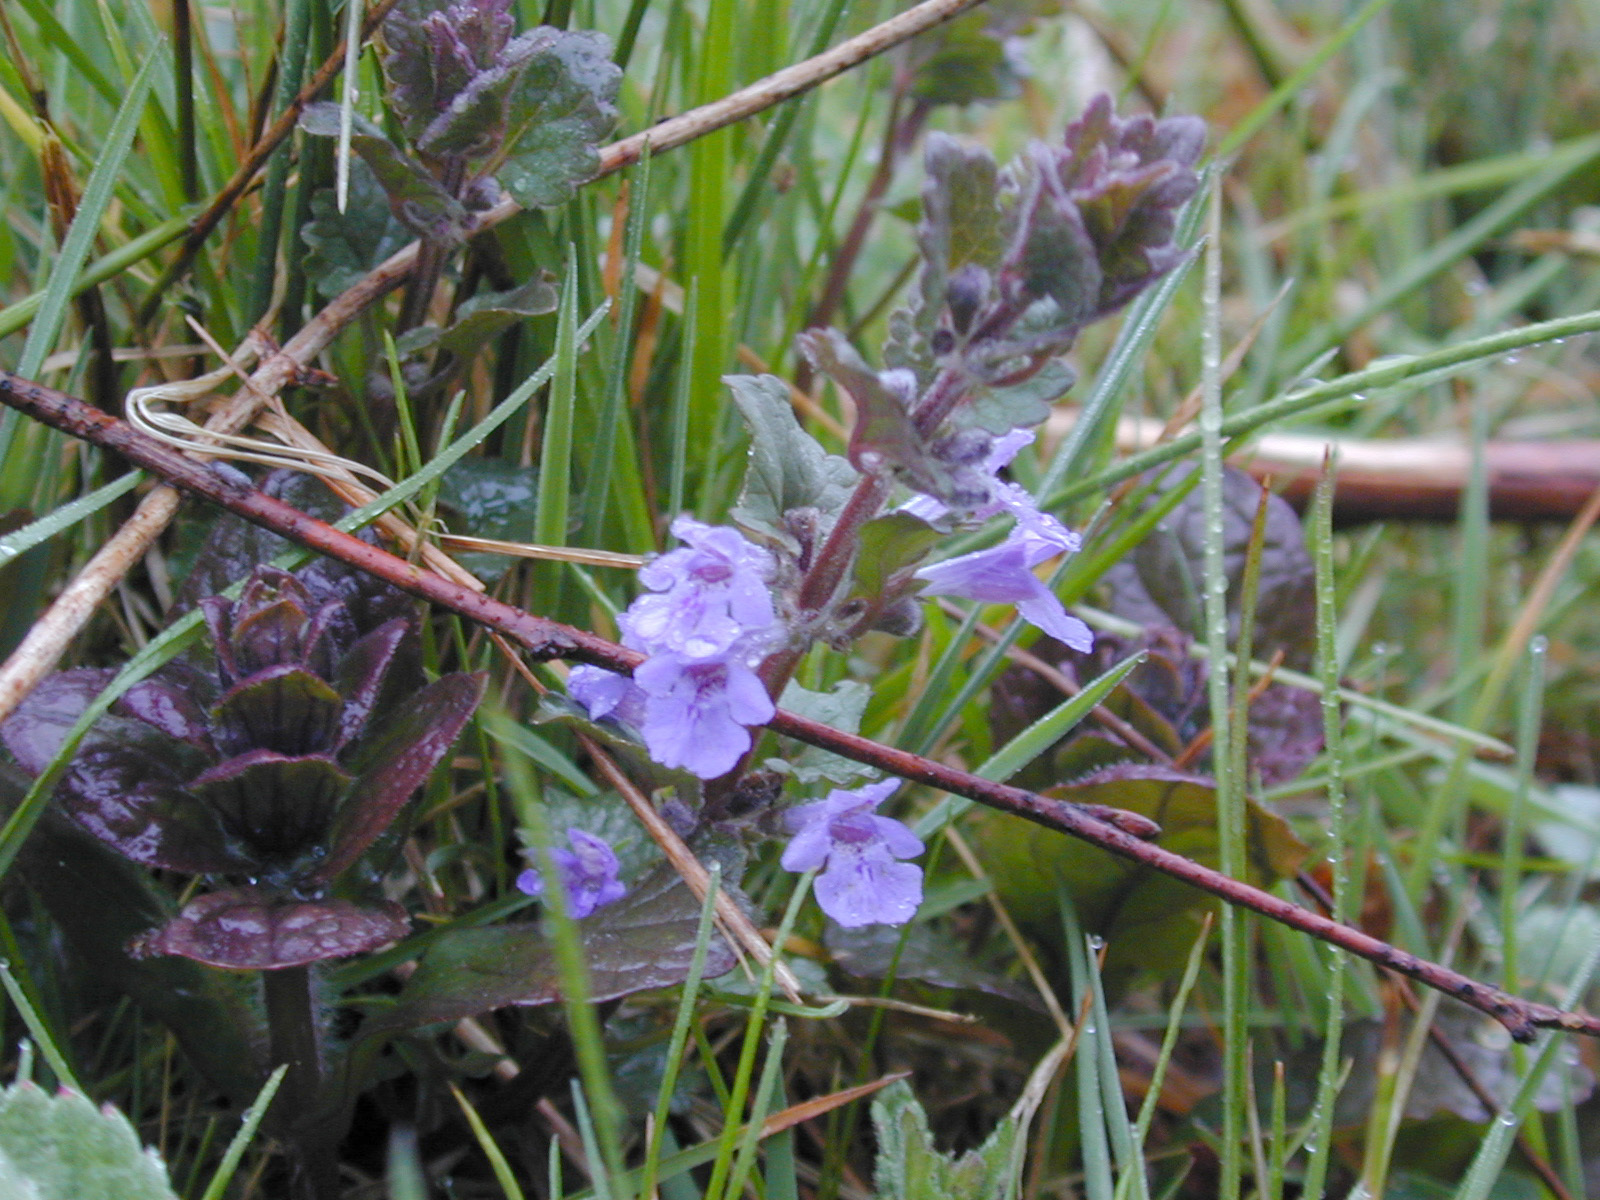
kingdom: Plantae
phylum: Tracheophyta
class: Magnoliopsida
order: Lamiales
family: Lamiaceae
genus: Glechoma
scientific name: Glechoma hederacea
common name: Ground ivy
